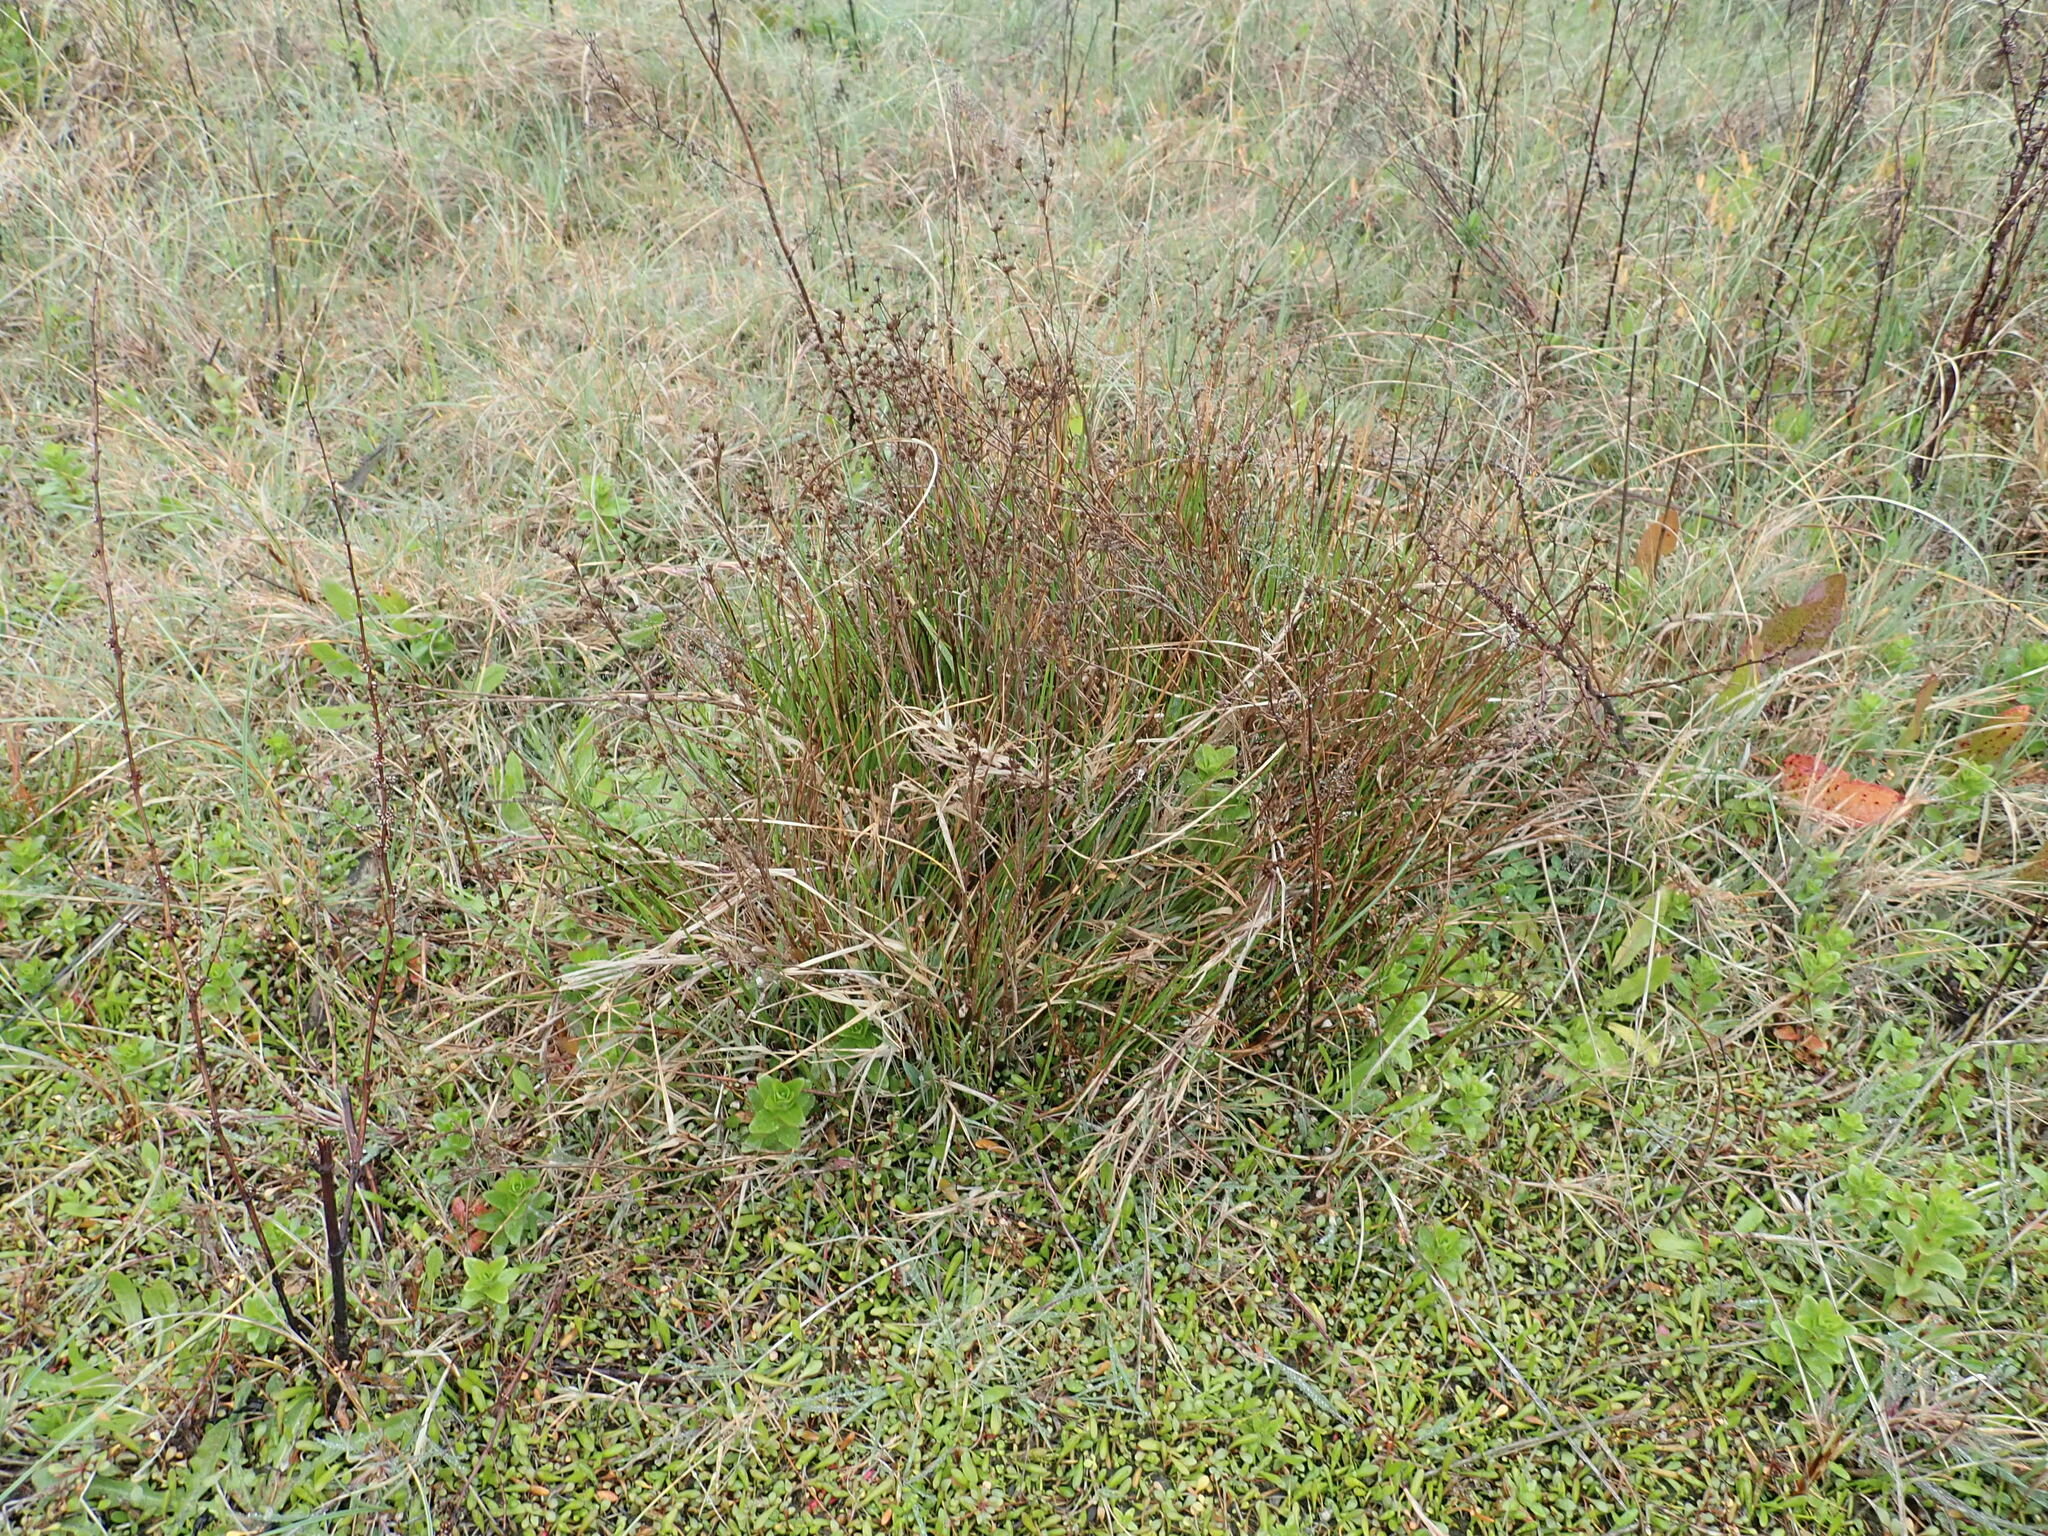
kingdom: Plantae
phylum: Tracheophyta
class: Liliopsida
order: Poales
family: Juncaceae
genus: Juncus
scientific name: Juncus articulatus
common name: Jointed rush
